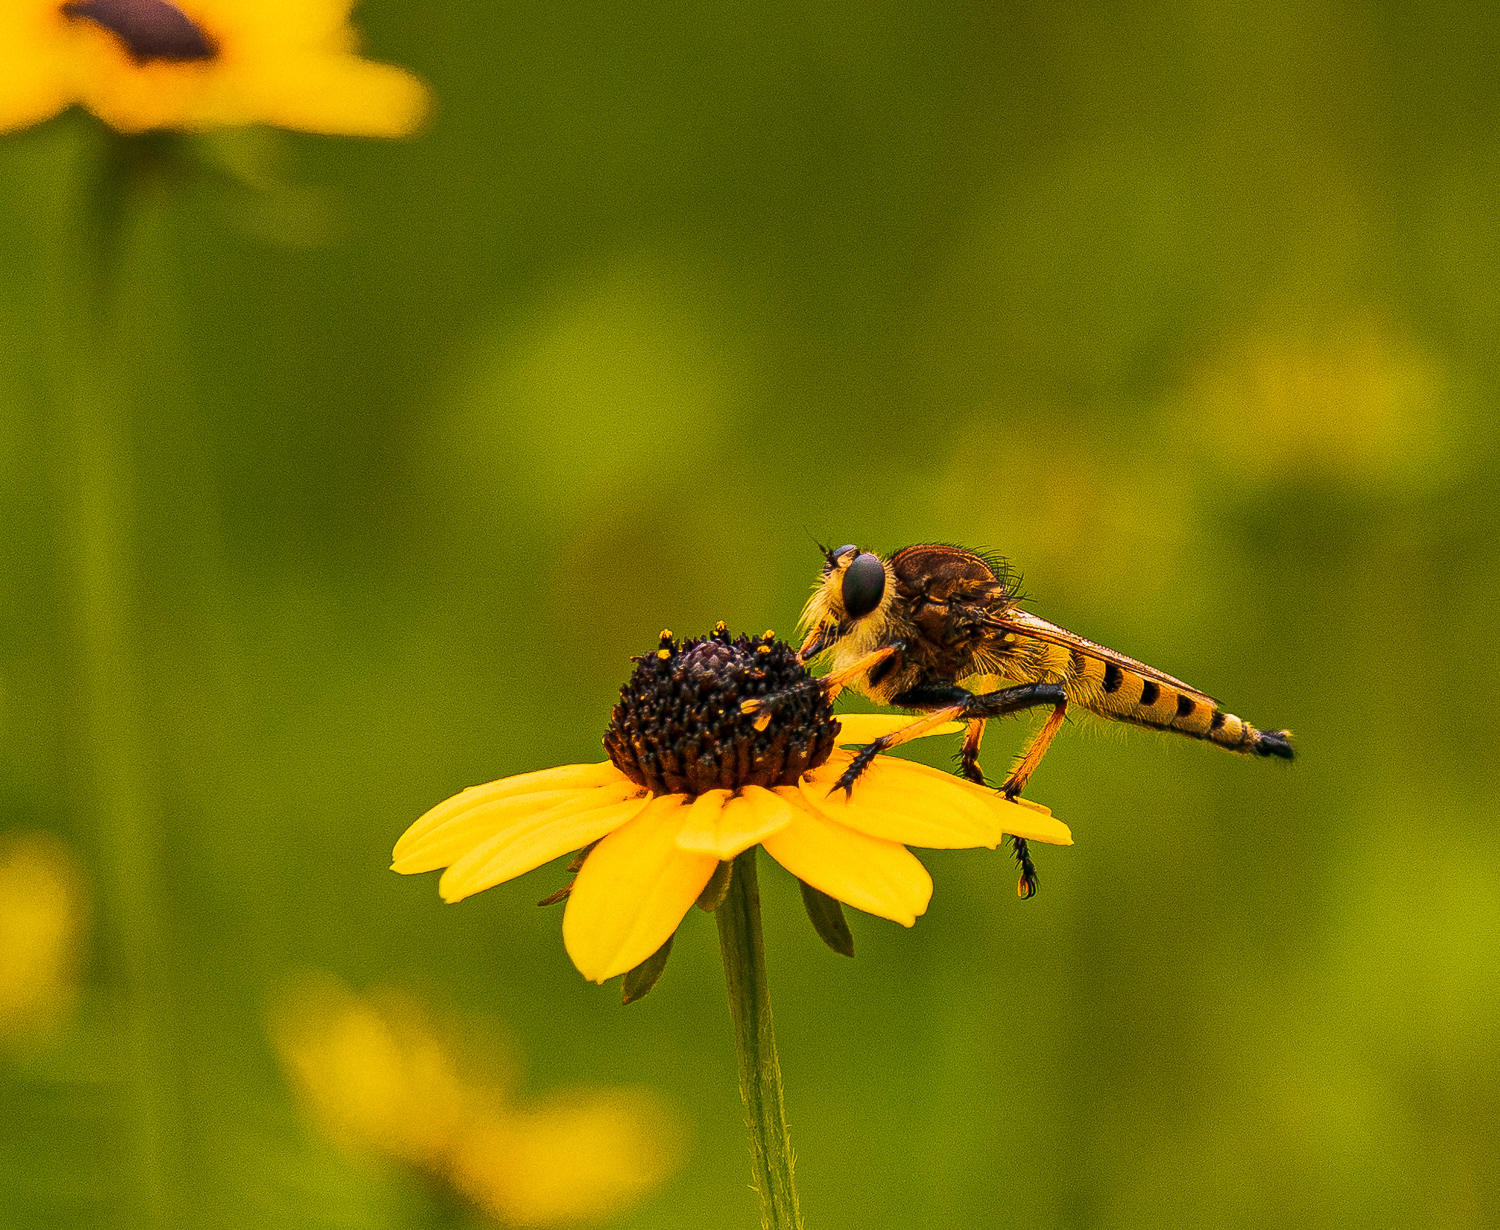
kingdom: Animalia
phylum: Arthropoda
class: Insecta
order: Diptera
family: Asilidae
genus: Promachus
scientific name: Promachus rufipes
